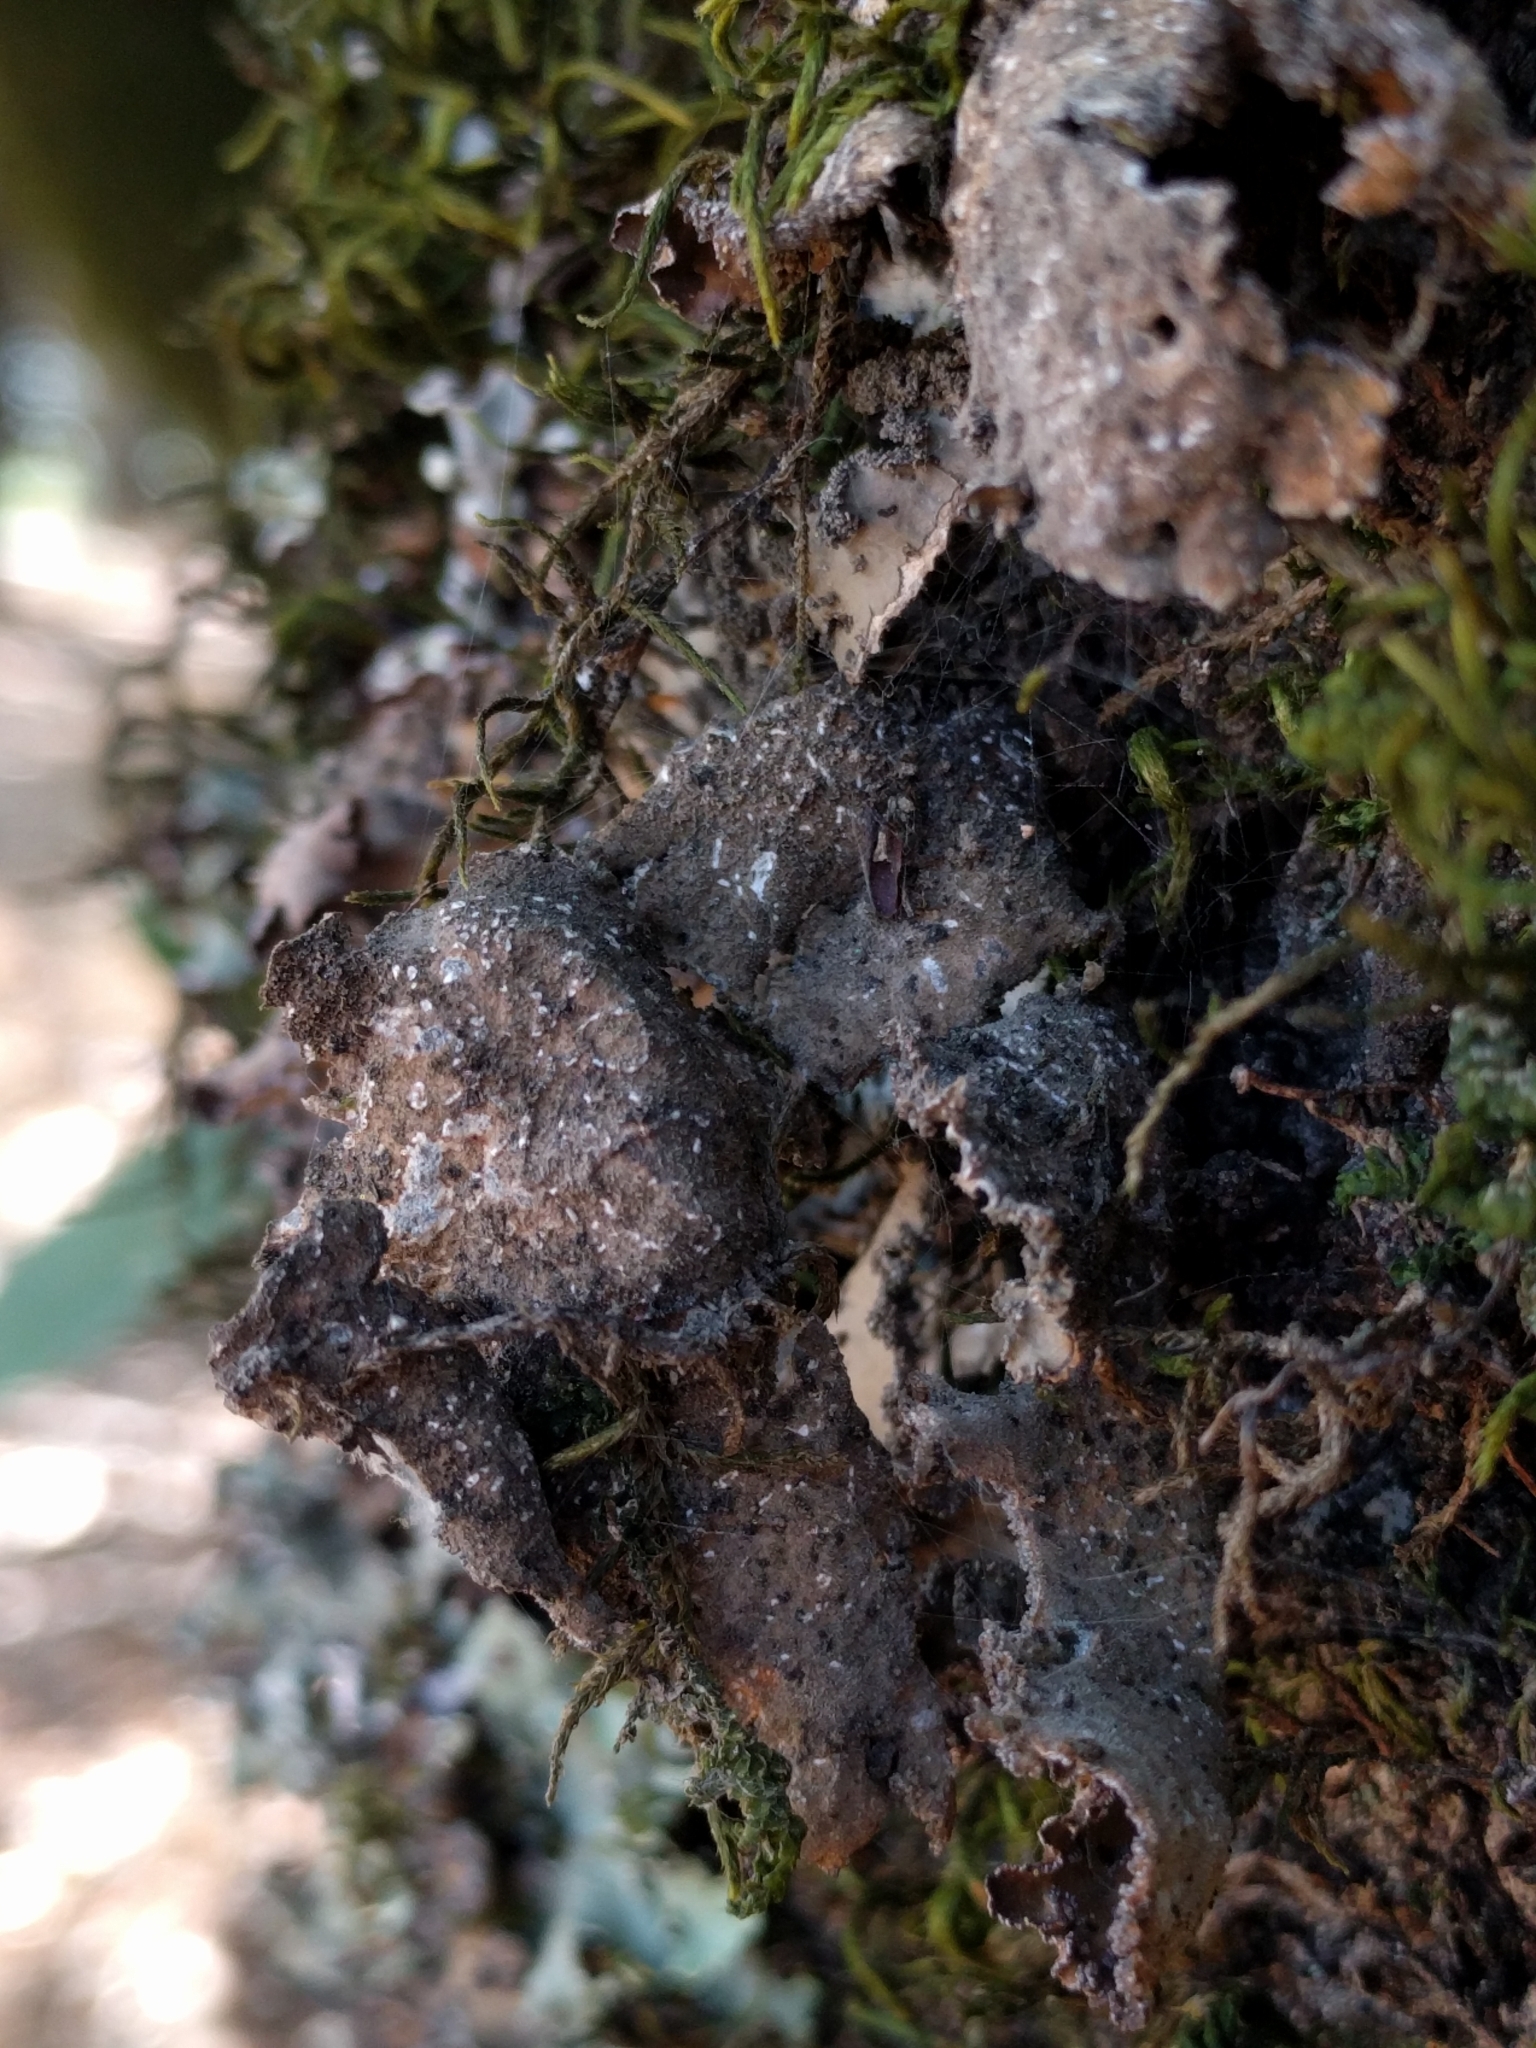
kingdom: Fungi
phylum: Ascomycota
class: Lecanoromycetes
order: Peltigerales
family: Lobariaceae
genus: Lobaria
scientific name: Lobaria anomala
